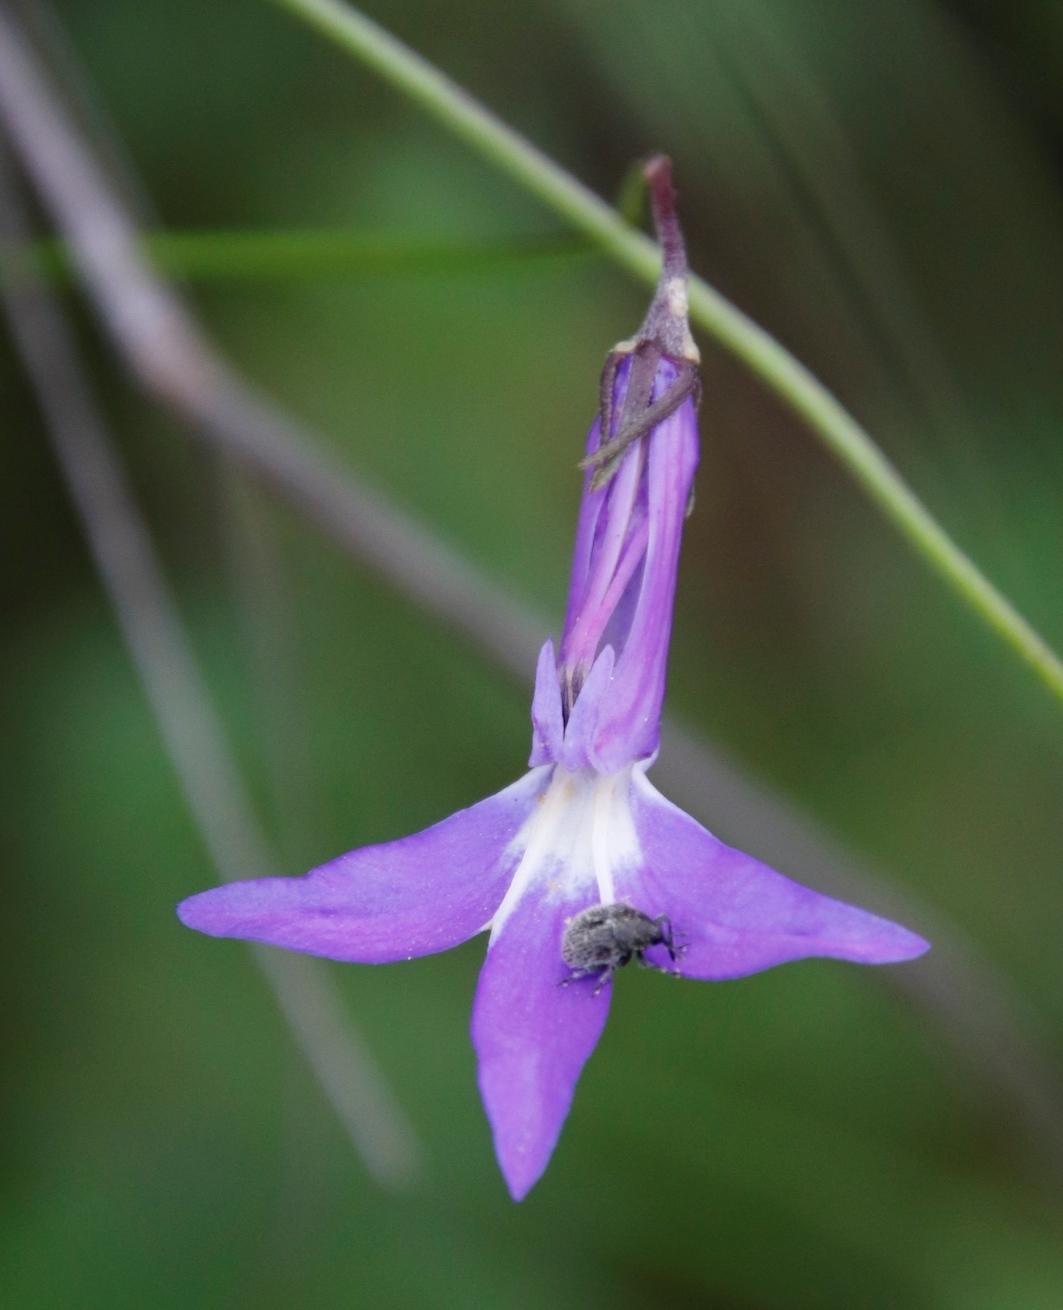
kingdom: Plantae
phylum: Tracheophyta
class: Magnoliopsida
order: Asterales
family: Campanulaceae
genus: Lobelia
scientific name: Lobelia preslii
